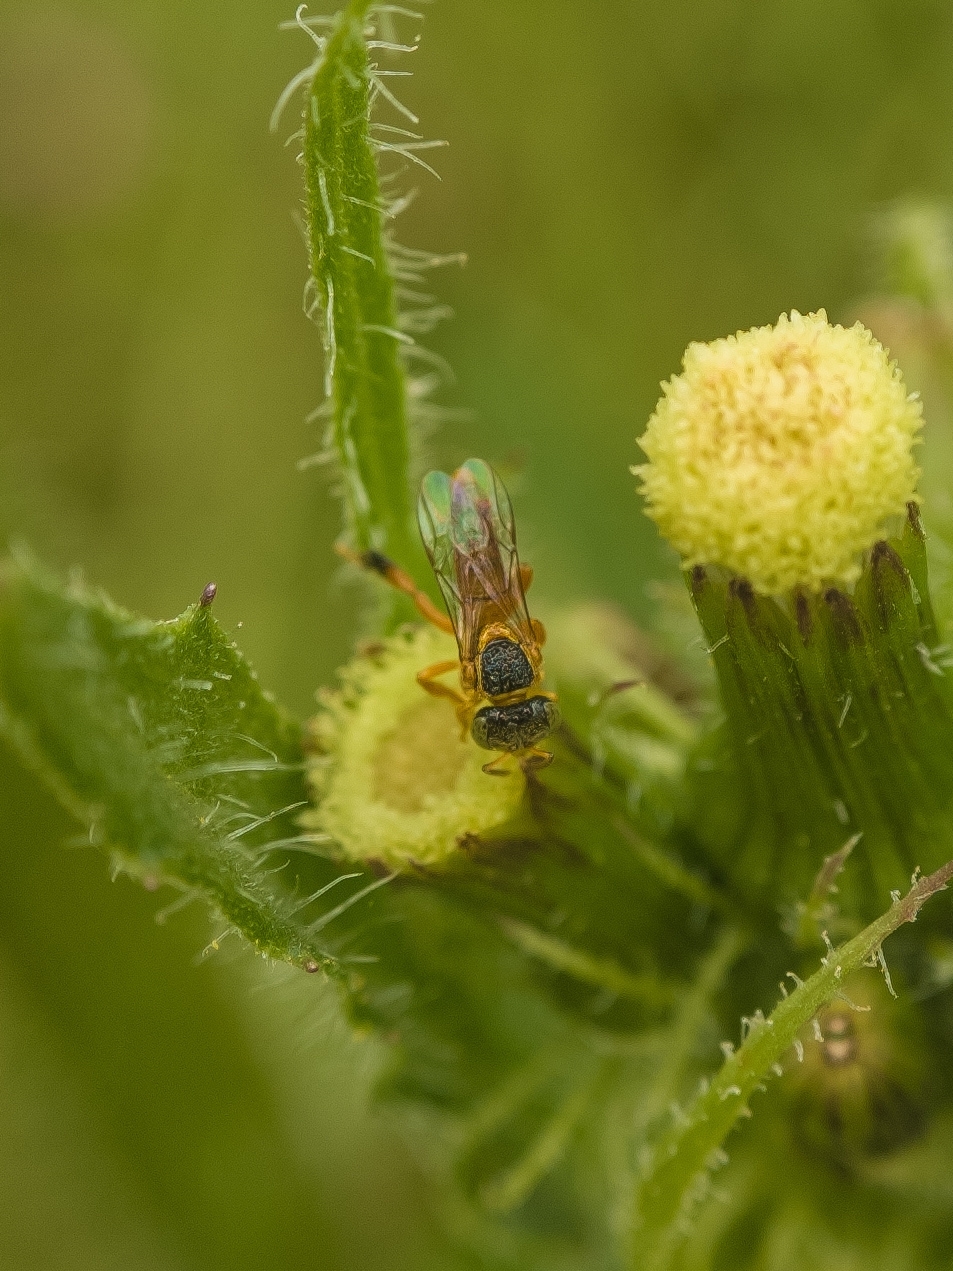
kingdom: Animalia
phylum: Arthropoda
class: Insecta
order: Hymenoptera
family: Apidae
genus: Tetragonisca
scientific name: Tetragonisca fiebrigi
